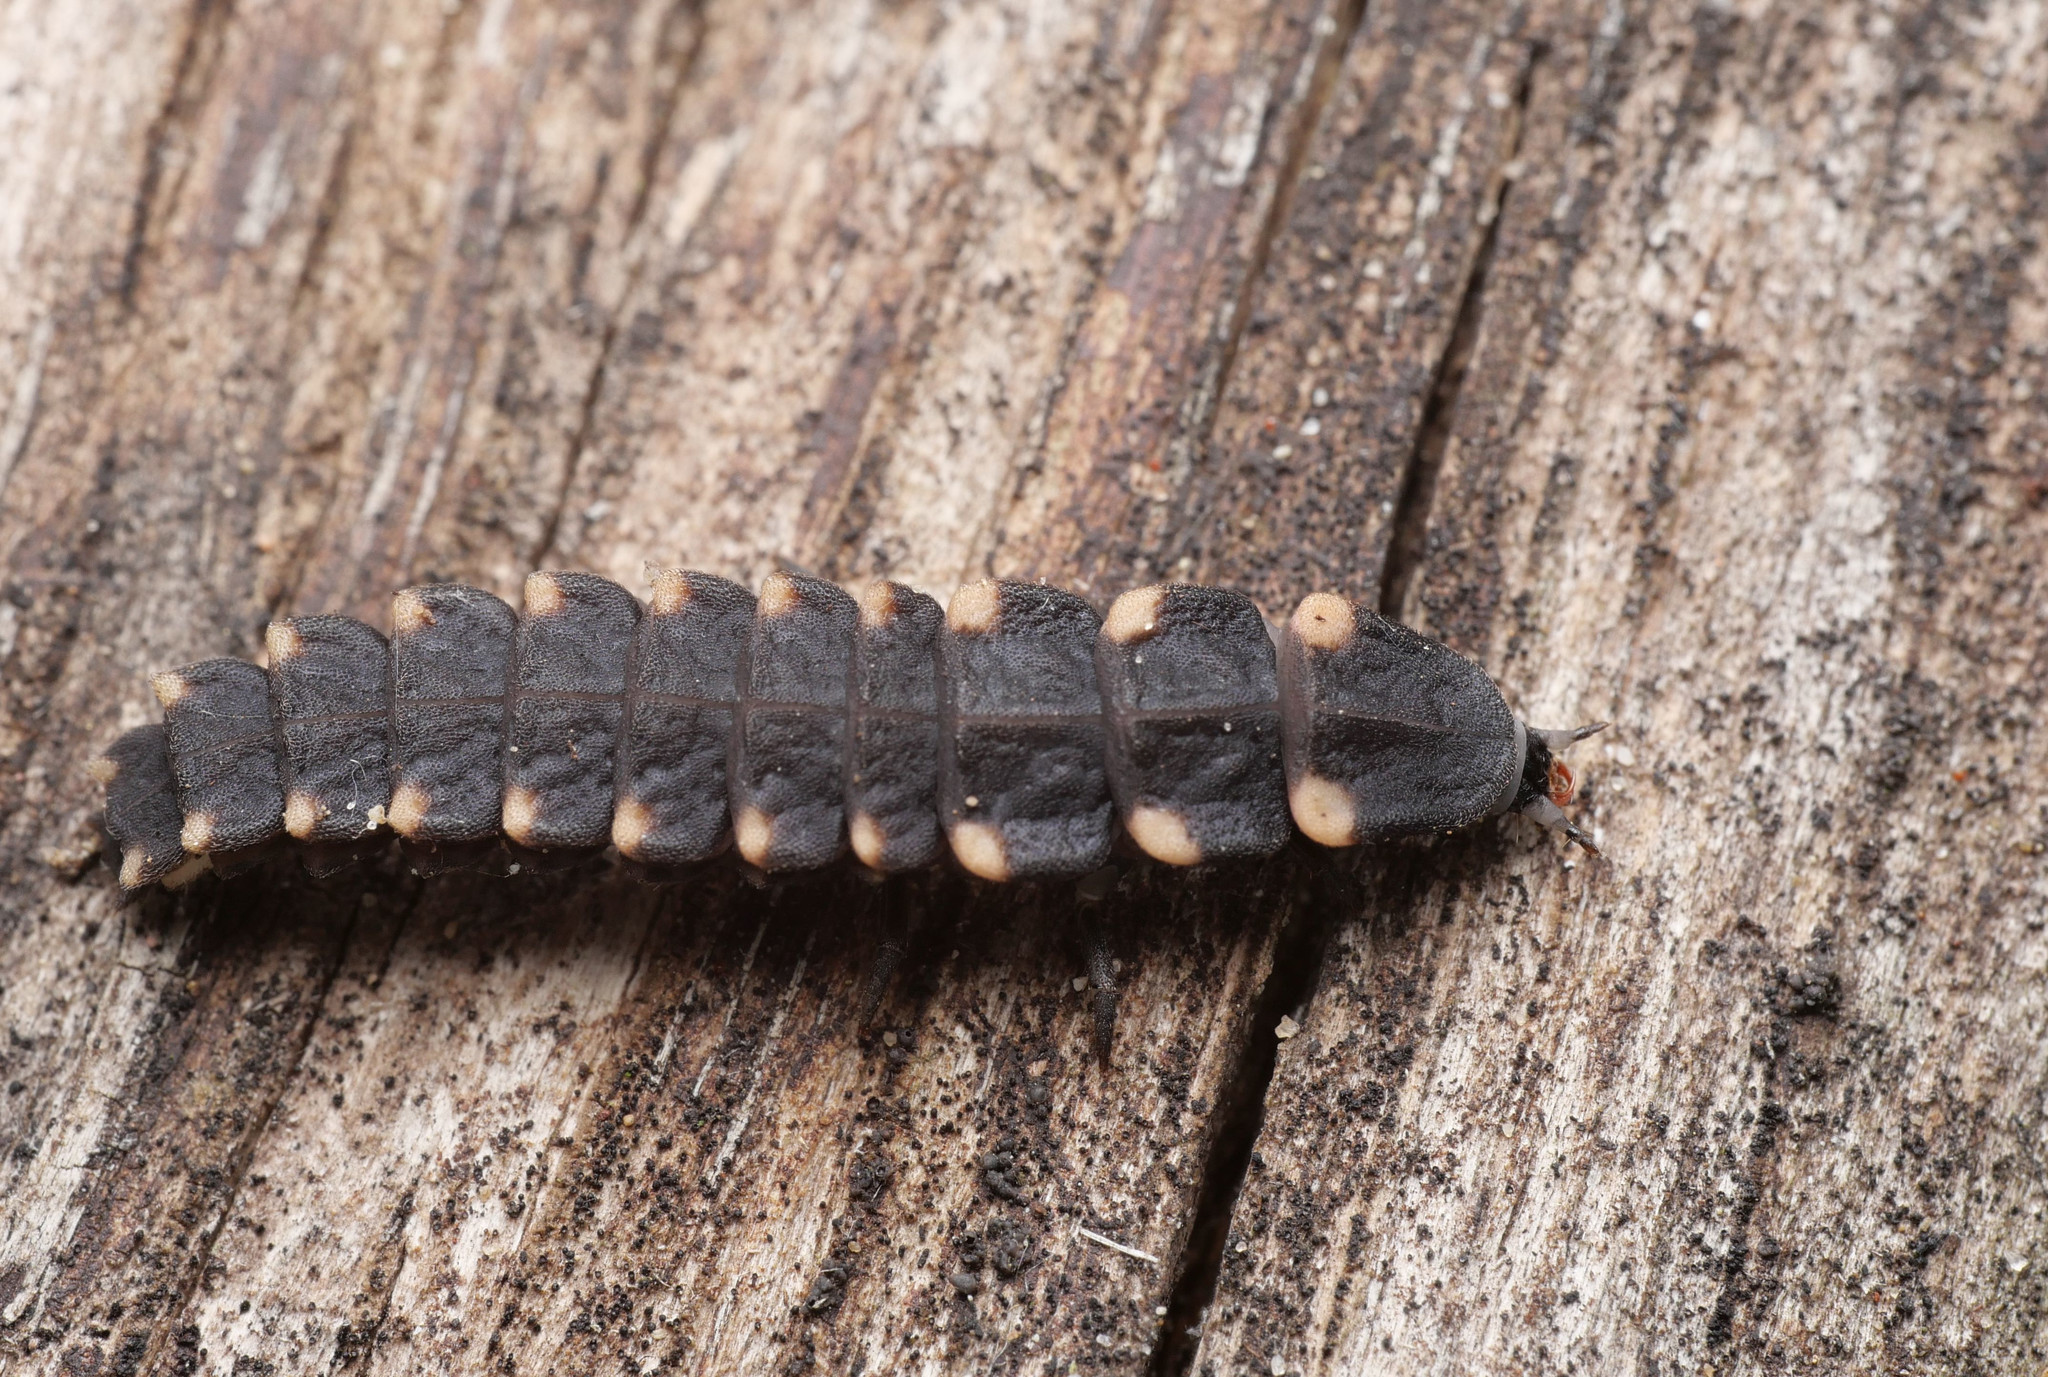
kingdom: Animalia
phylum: Arthropoda
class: Insecta
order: Coleoptera
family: Lampyridae
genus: Lampyris
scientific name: Lampyris noctiluca
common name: Glow-worm
